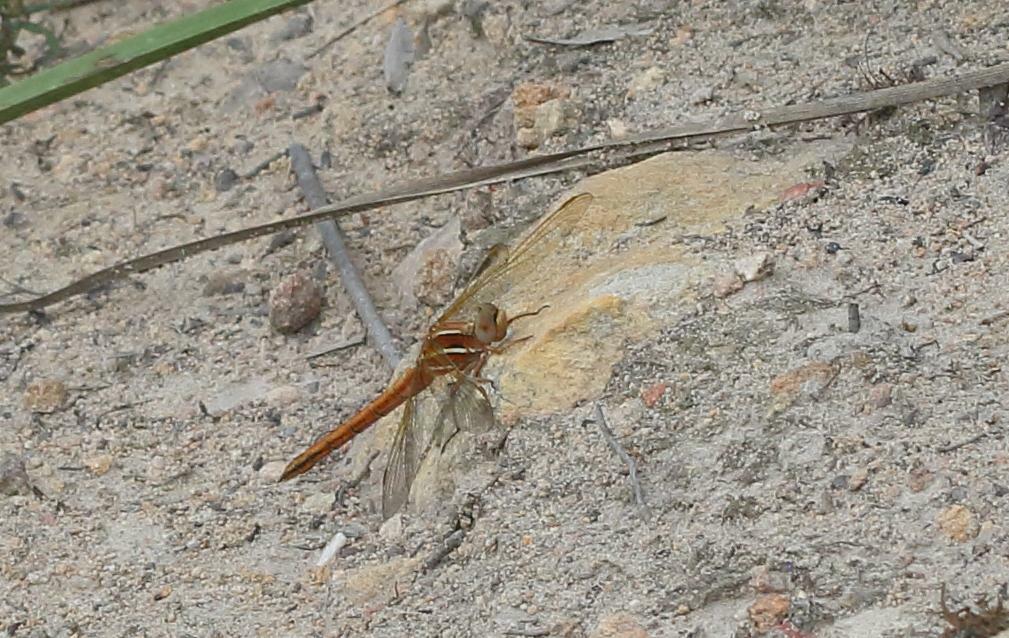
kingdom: Animalia
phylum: Arthropoda
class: Insecta
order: Odonata
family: Libellulidae
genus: Orthetrum
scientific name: Orthetrum caffrum
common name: Two-striped skimmer
